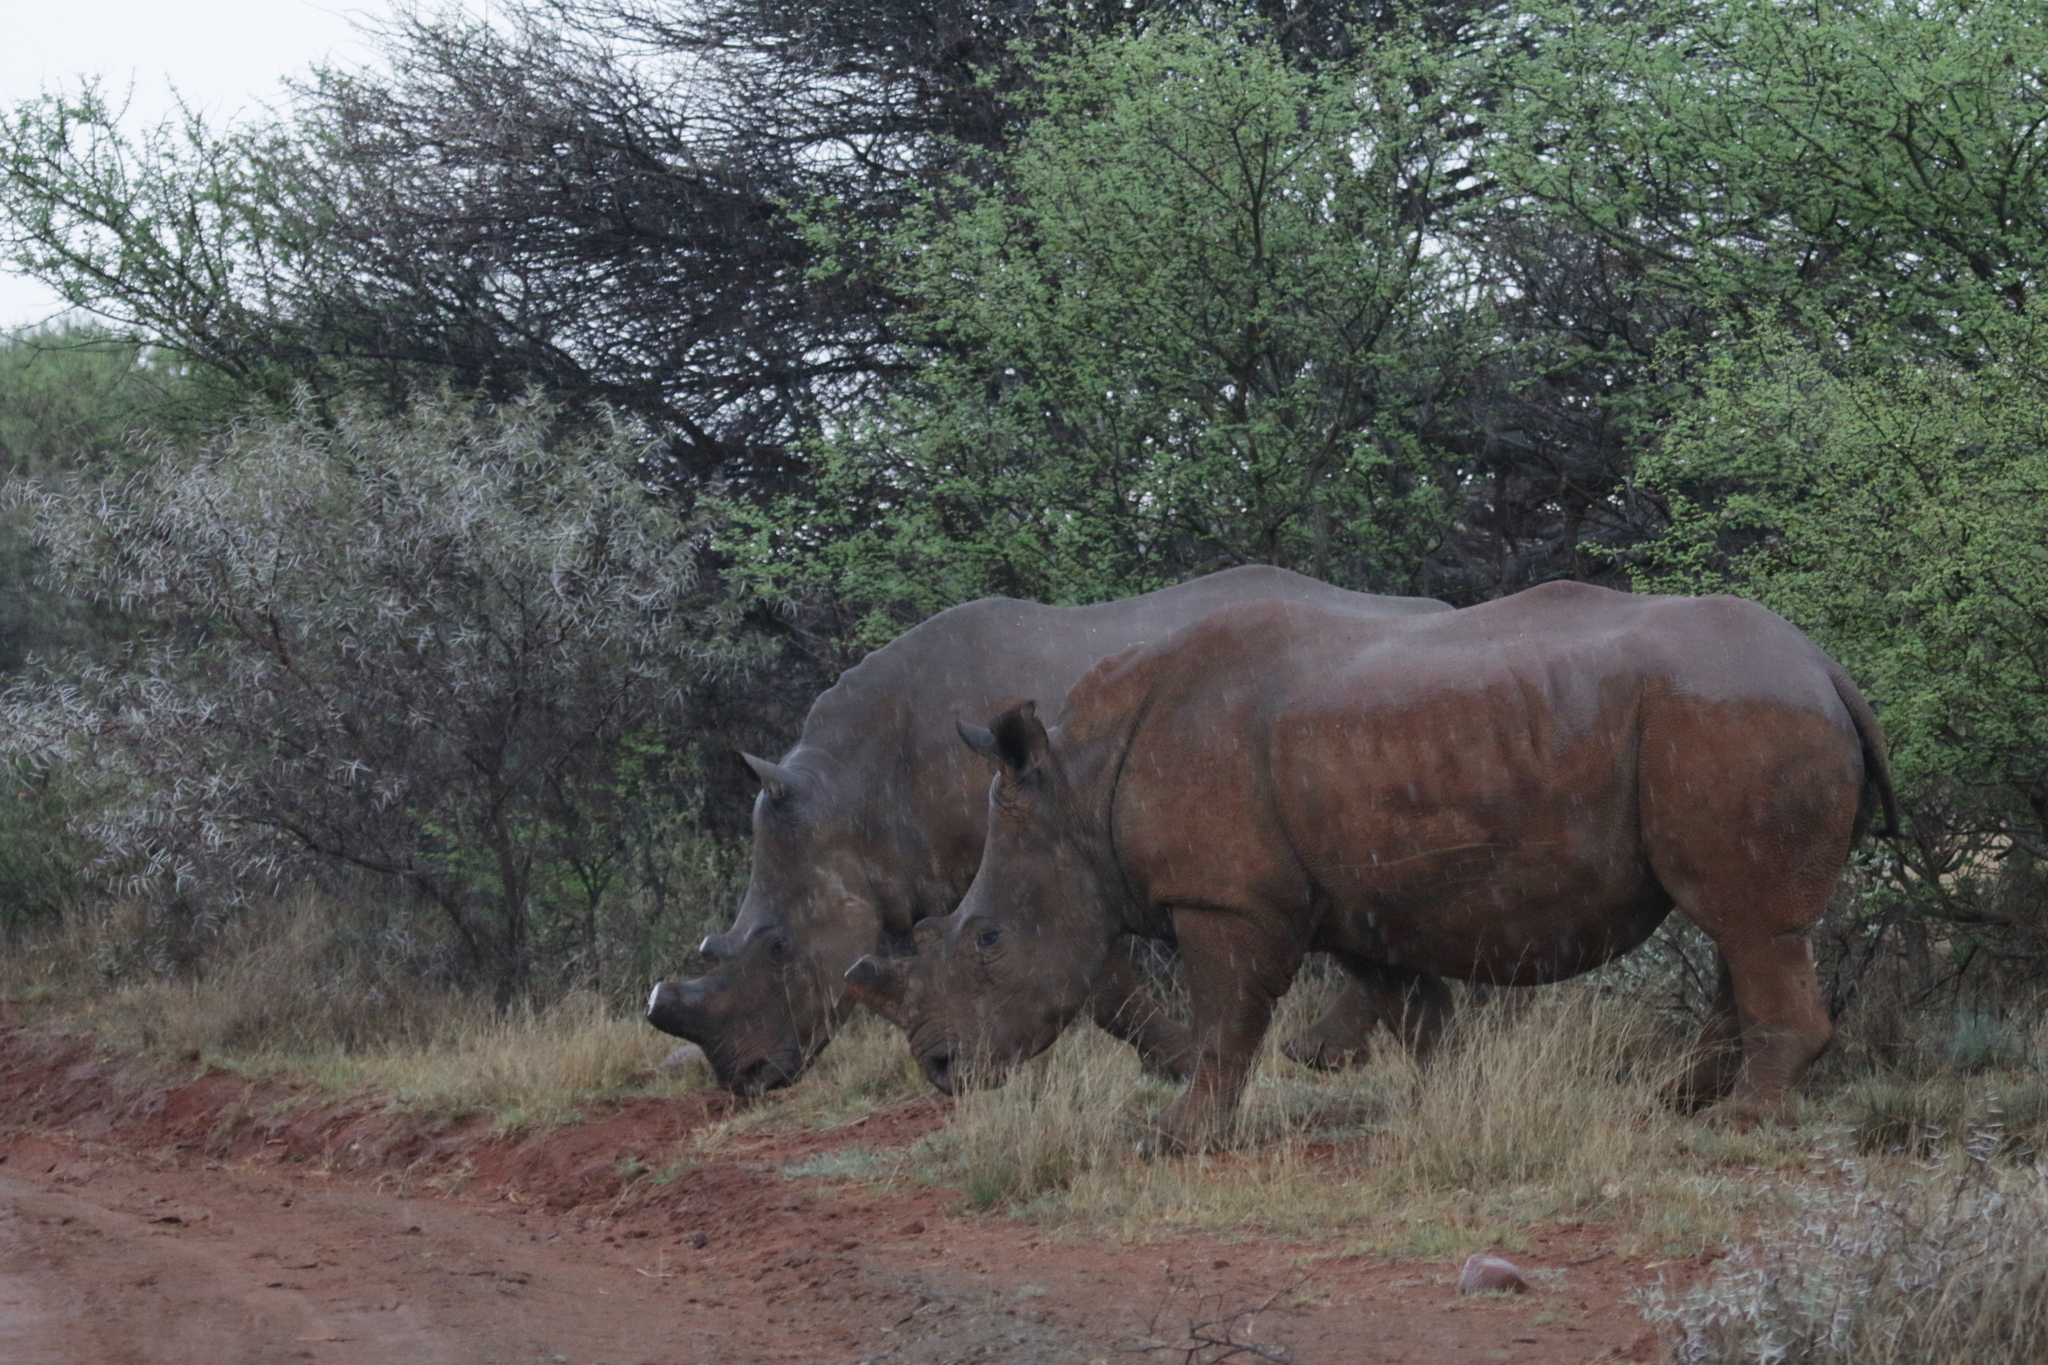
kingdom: Animalia
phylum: Chordata
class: Mammalia
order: Perissodactyla
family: Rhinocerotidae
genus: Ceratotherium
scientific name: Ceratotherium simum
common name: White rhinoceros
